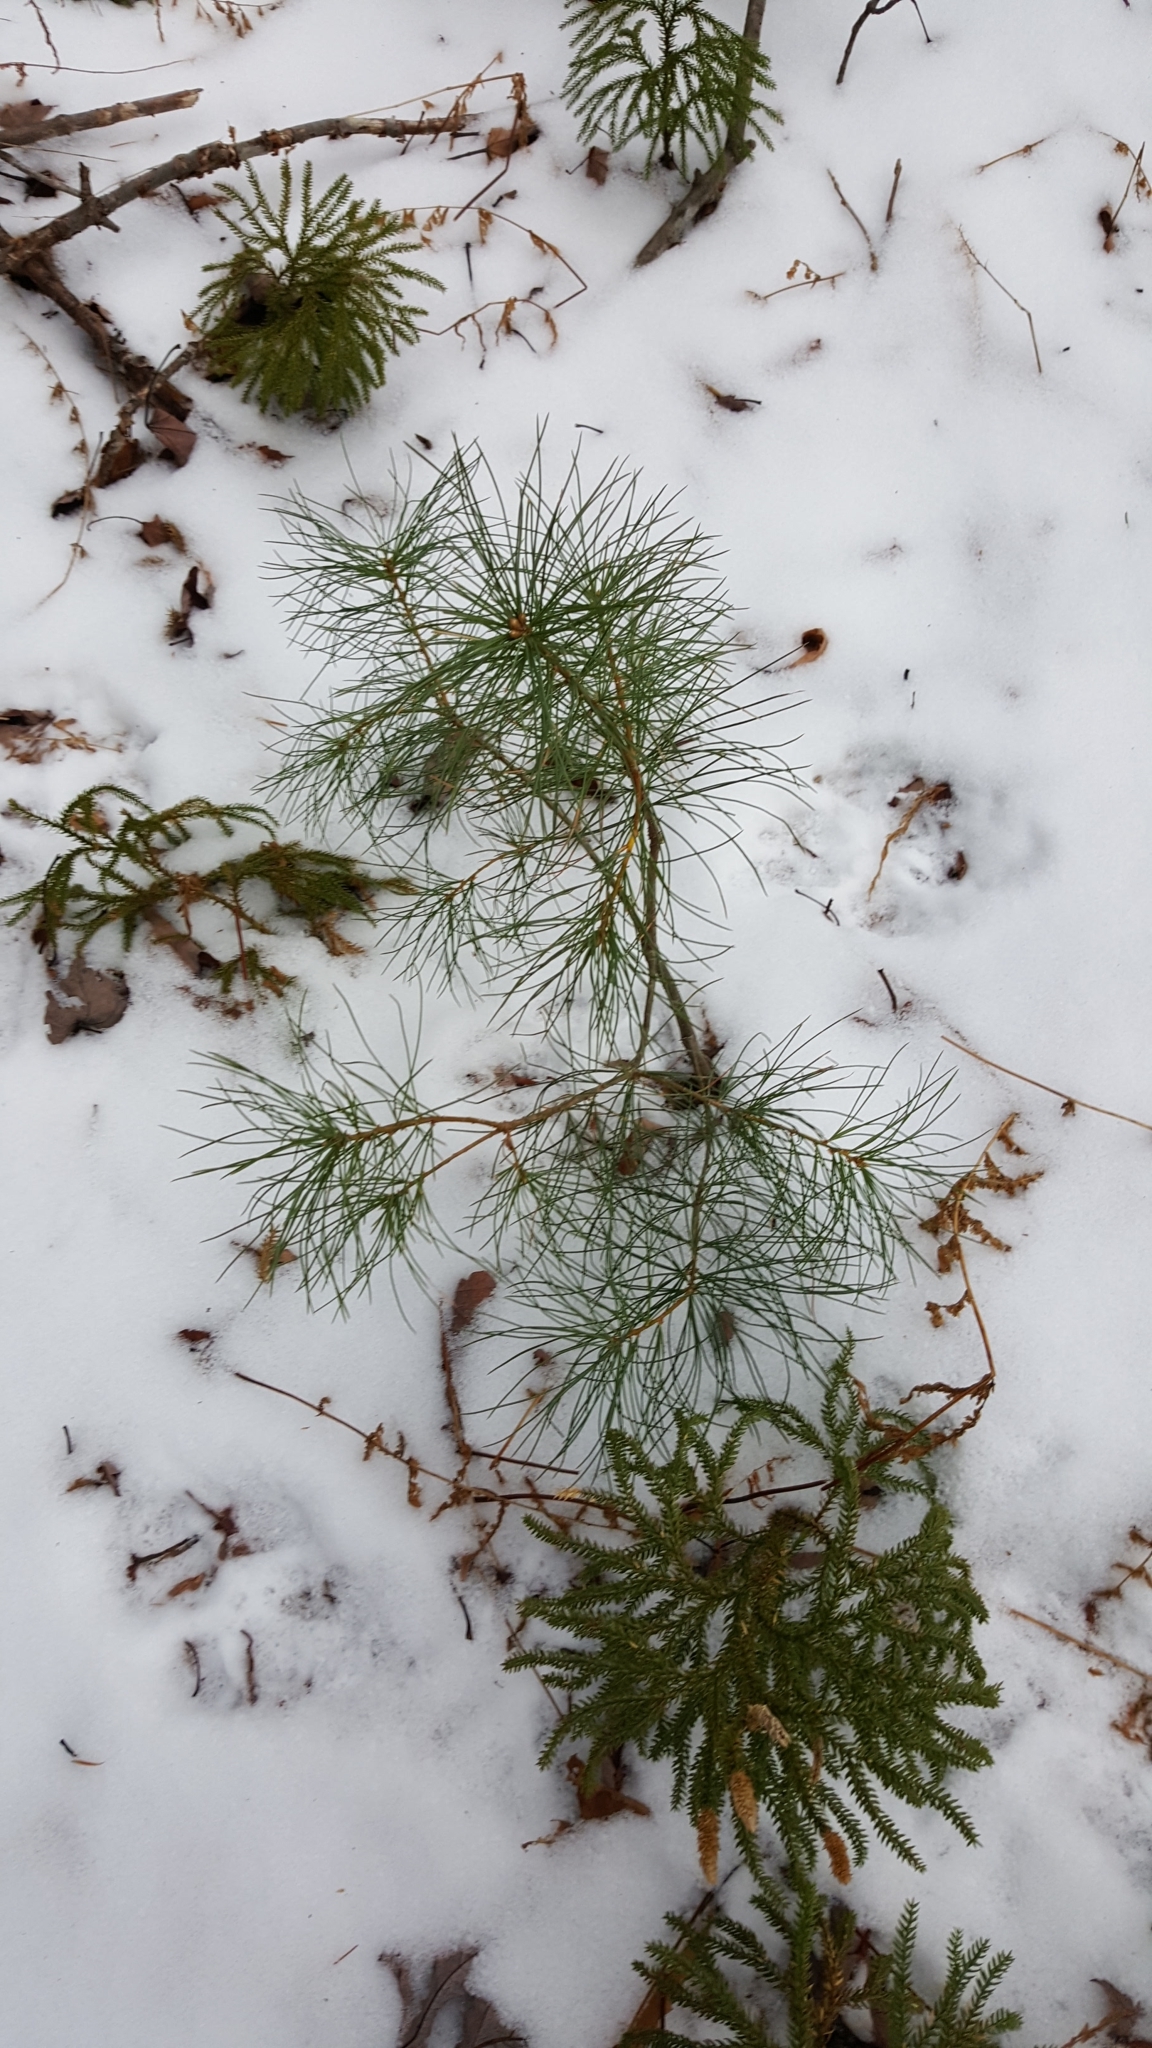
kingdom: Plantae
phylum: Tracheophyta
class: Pinopsida
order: Pinales
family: Pinaceae
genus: Pinus
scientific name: Pinus strobus
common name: Weymouth pine
